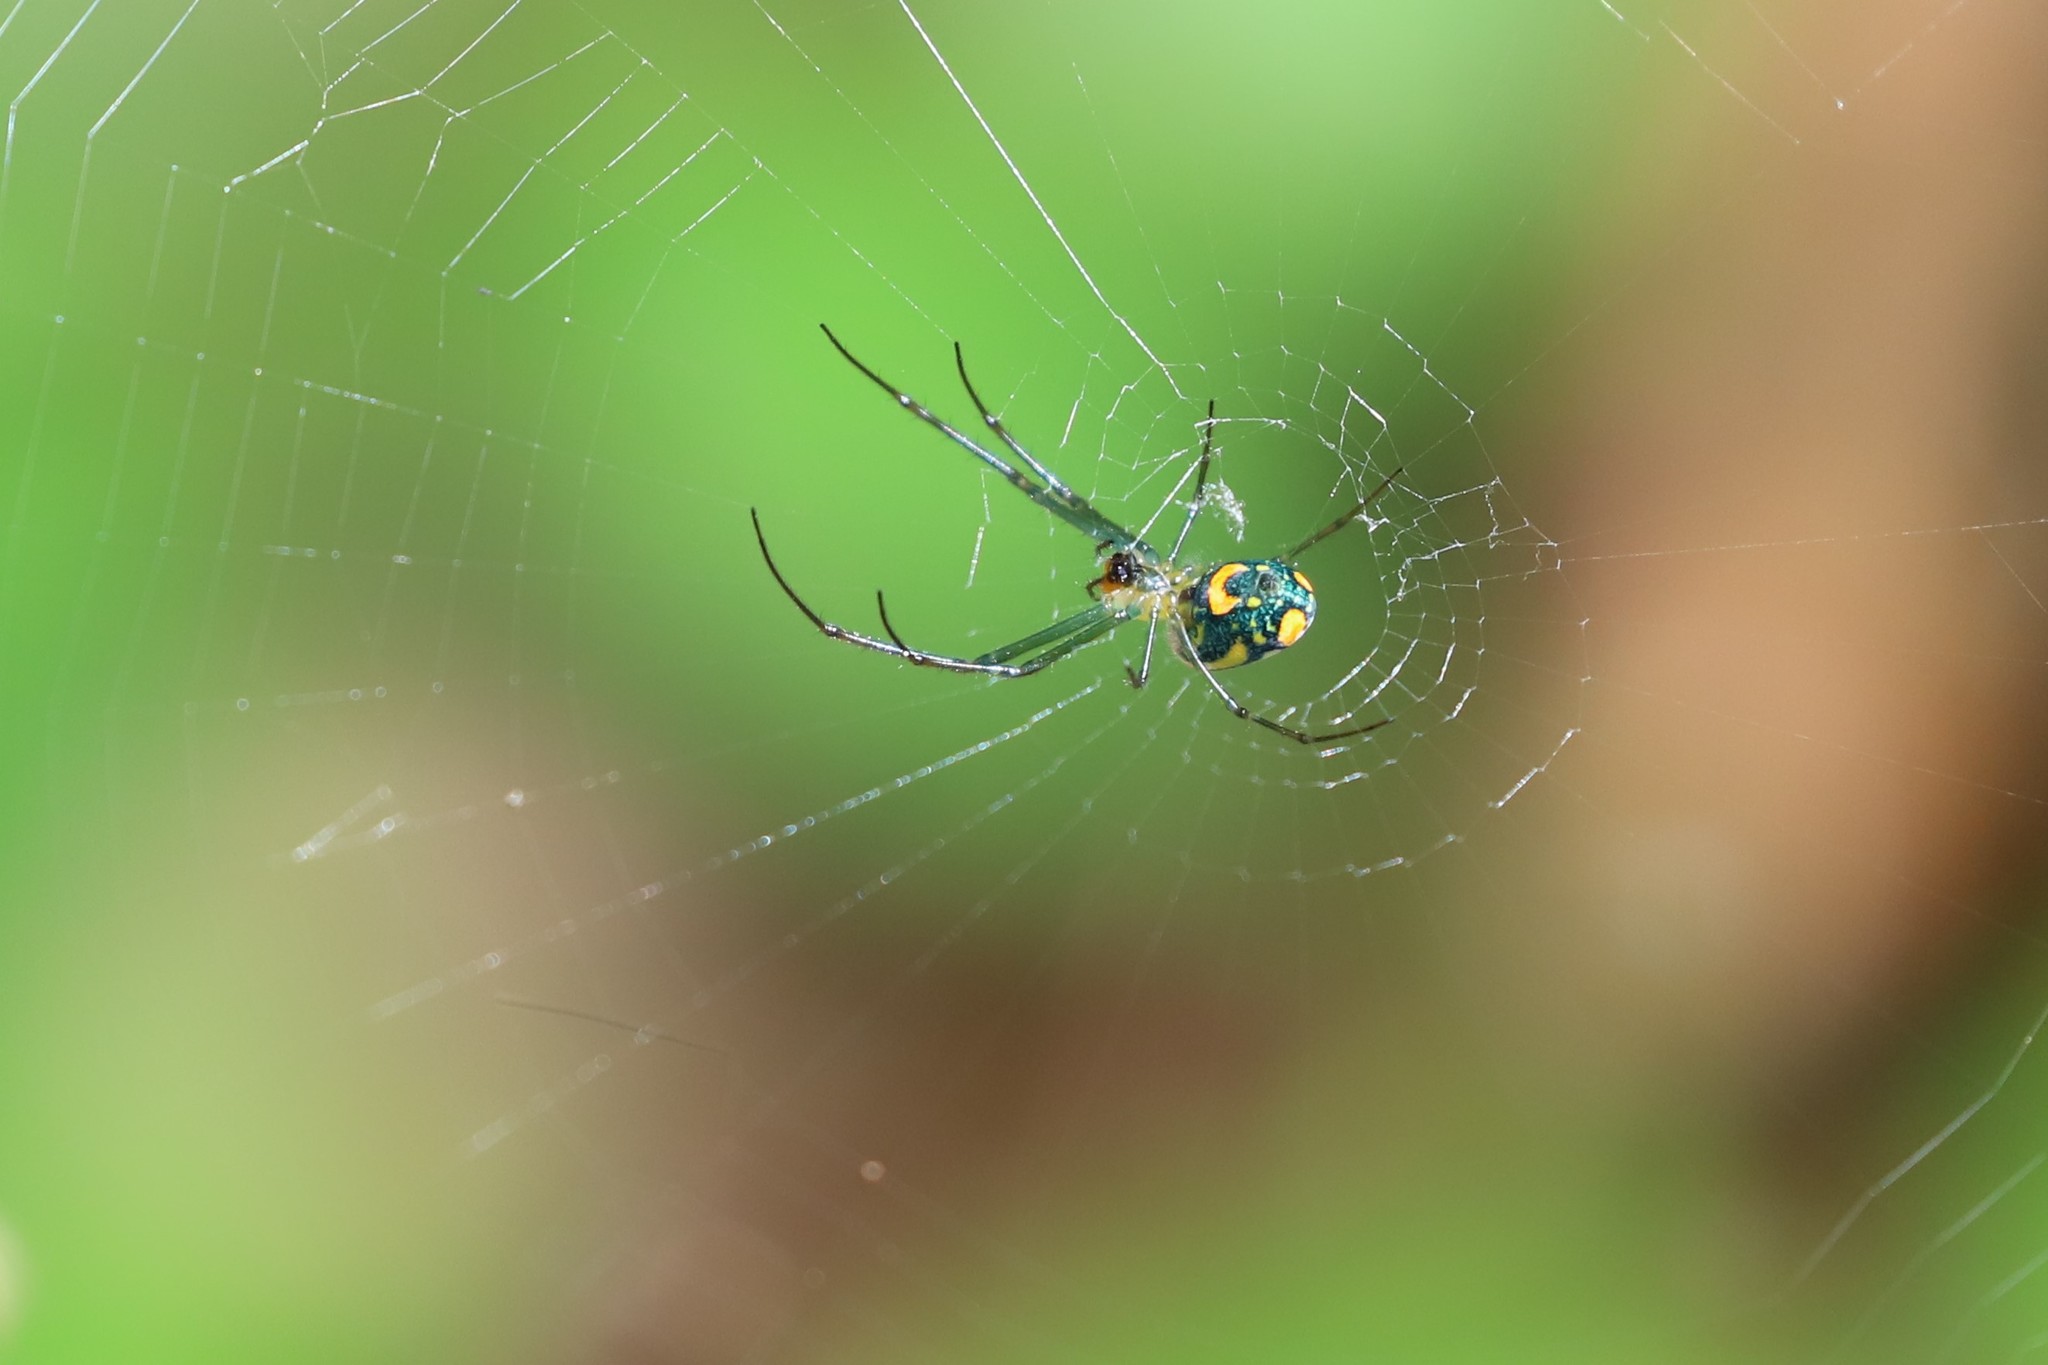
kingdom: Animalia
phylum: Arthropoda
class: Arachnida
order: Araneae
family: Tetragnathidae
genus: Leucauge
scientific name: Leucauge argyrobapta
